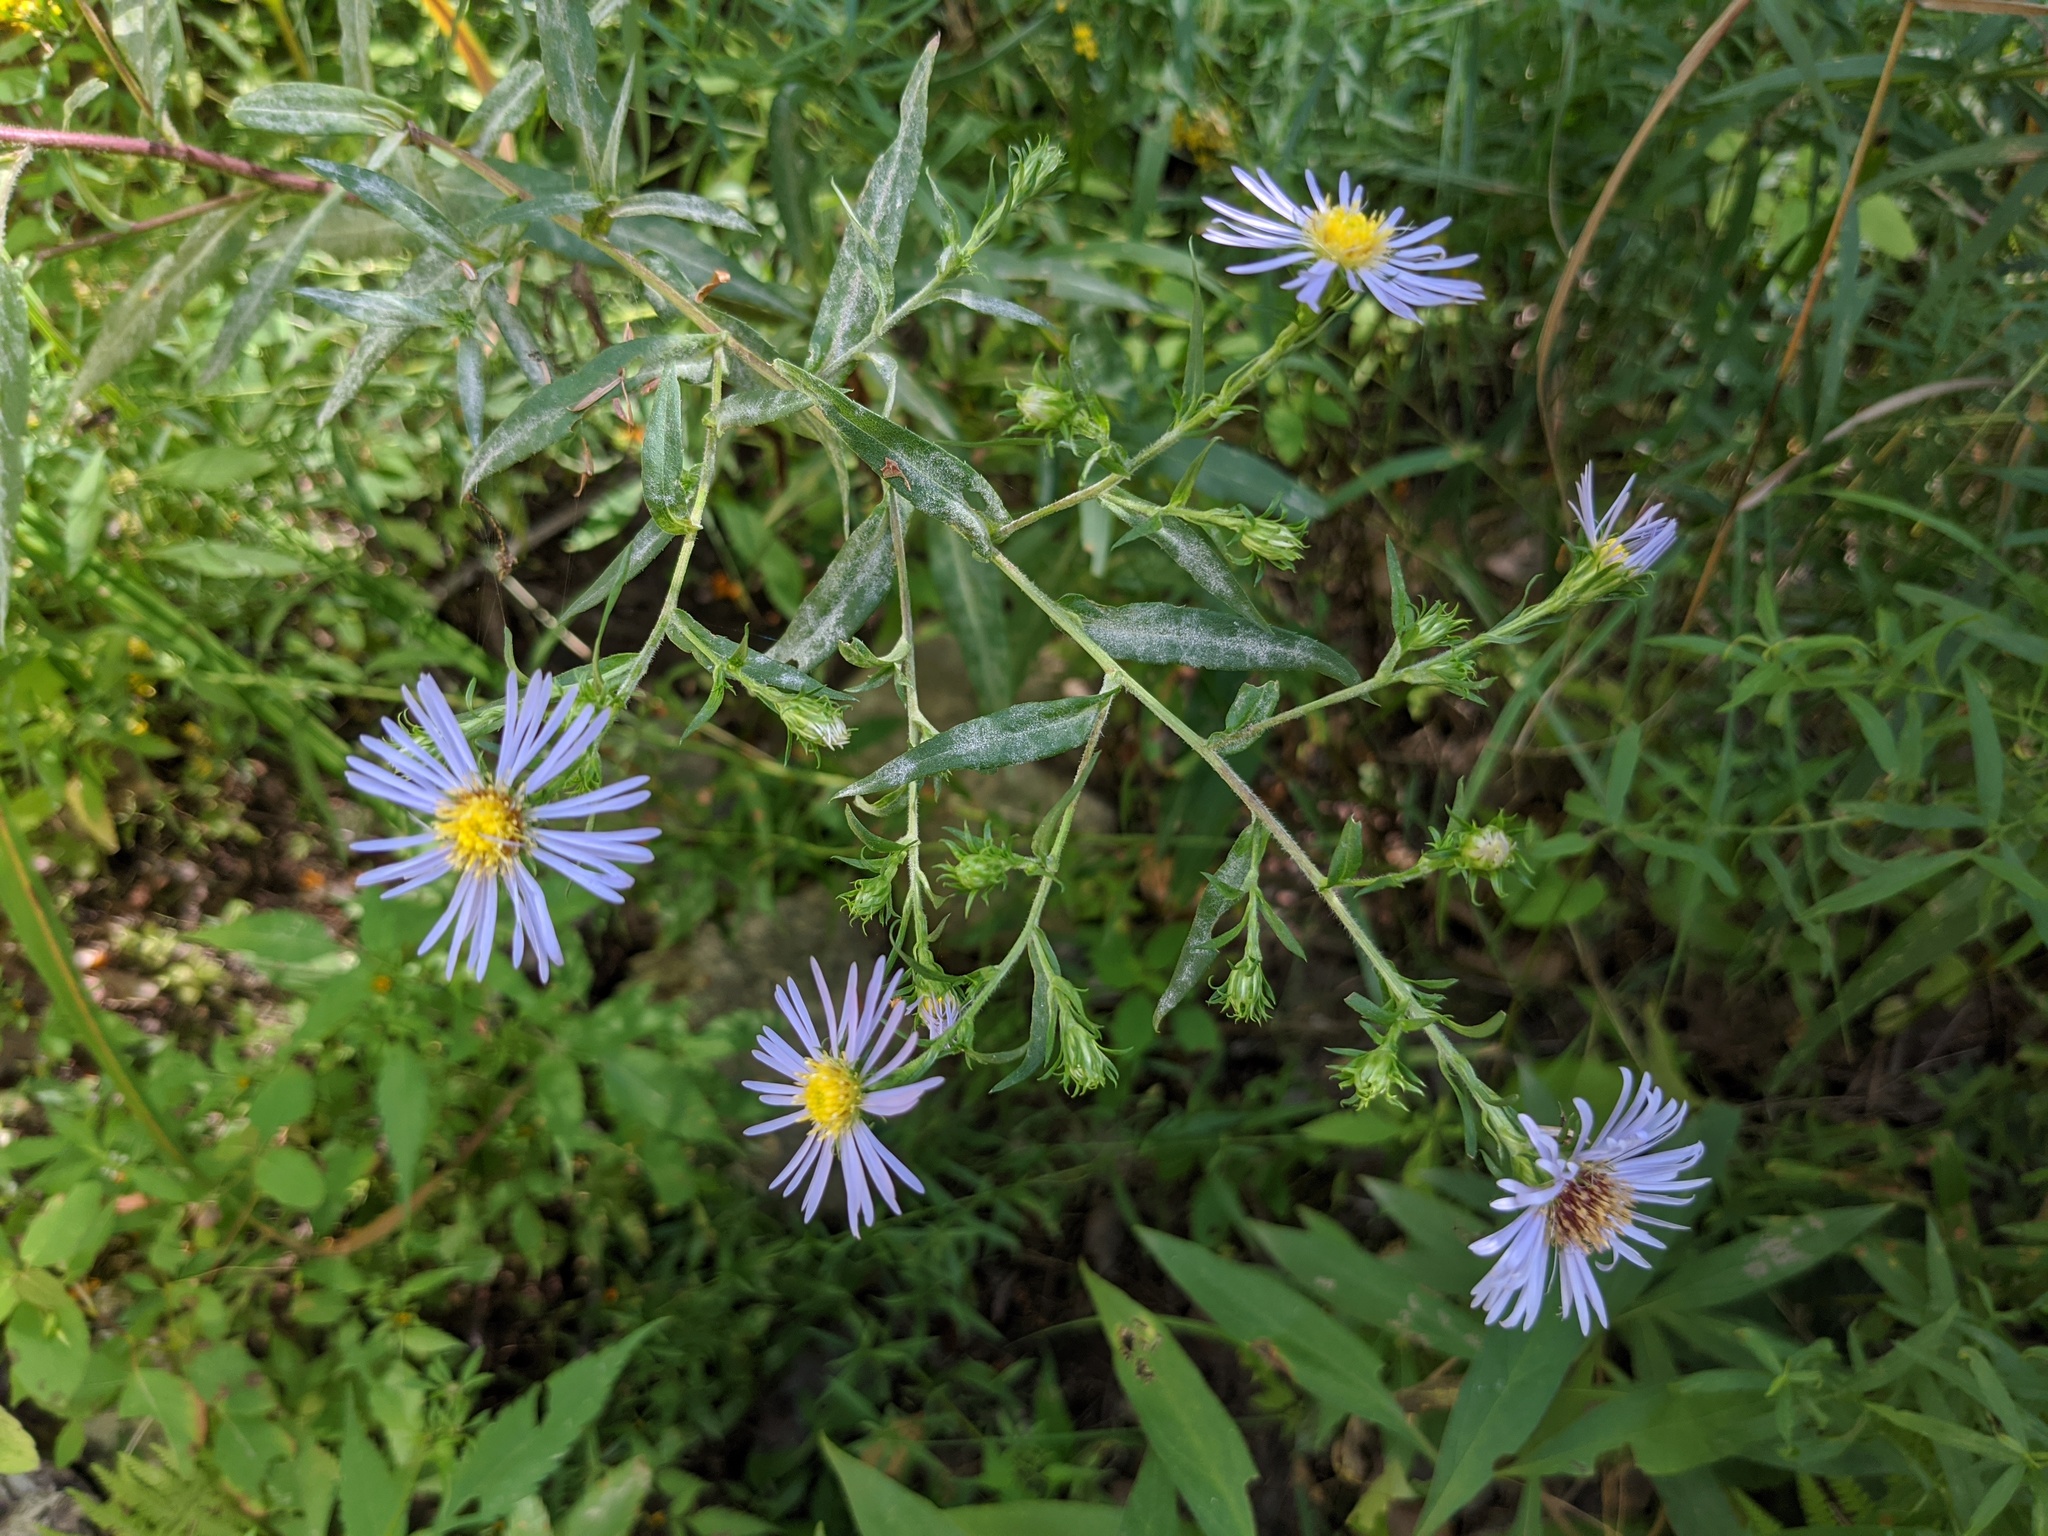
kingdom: Plantae
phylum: Tracheophyta
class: Magnoliopsida
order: Asterales
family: Asteraceae
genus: Symphyotrichum
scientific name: Symphyotrichum puniceum
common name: Bog aster
